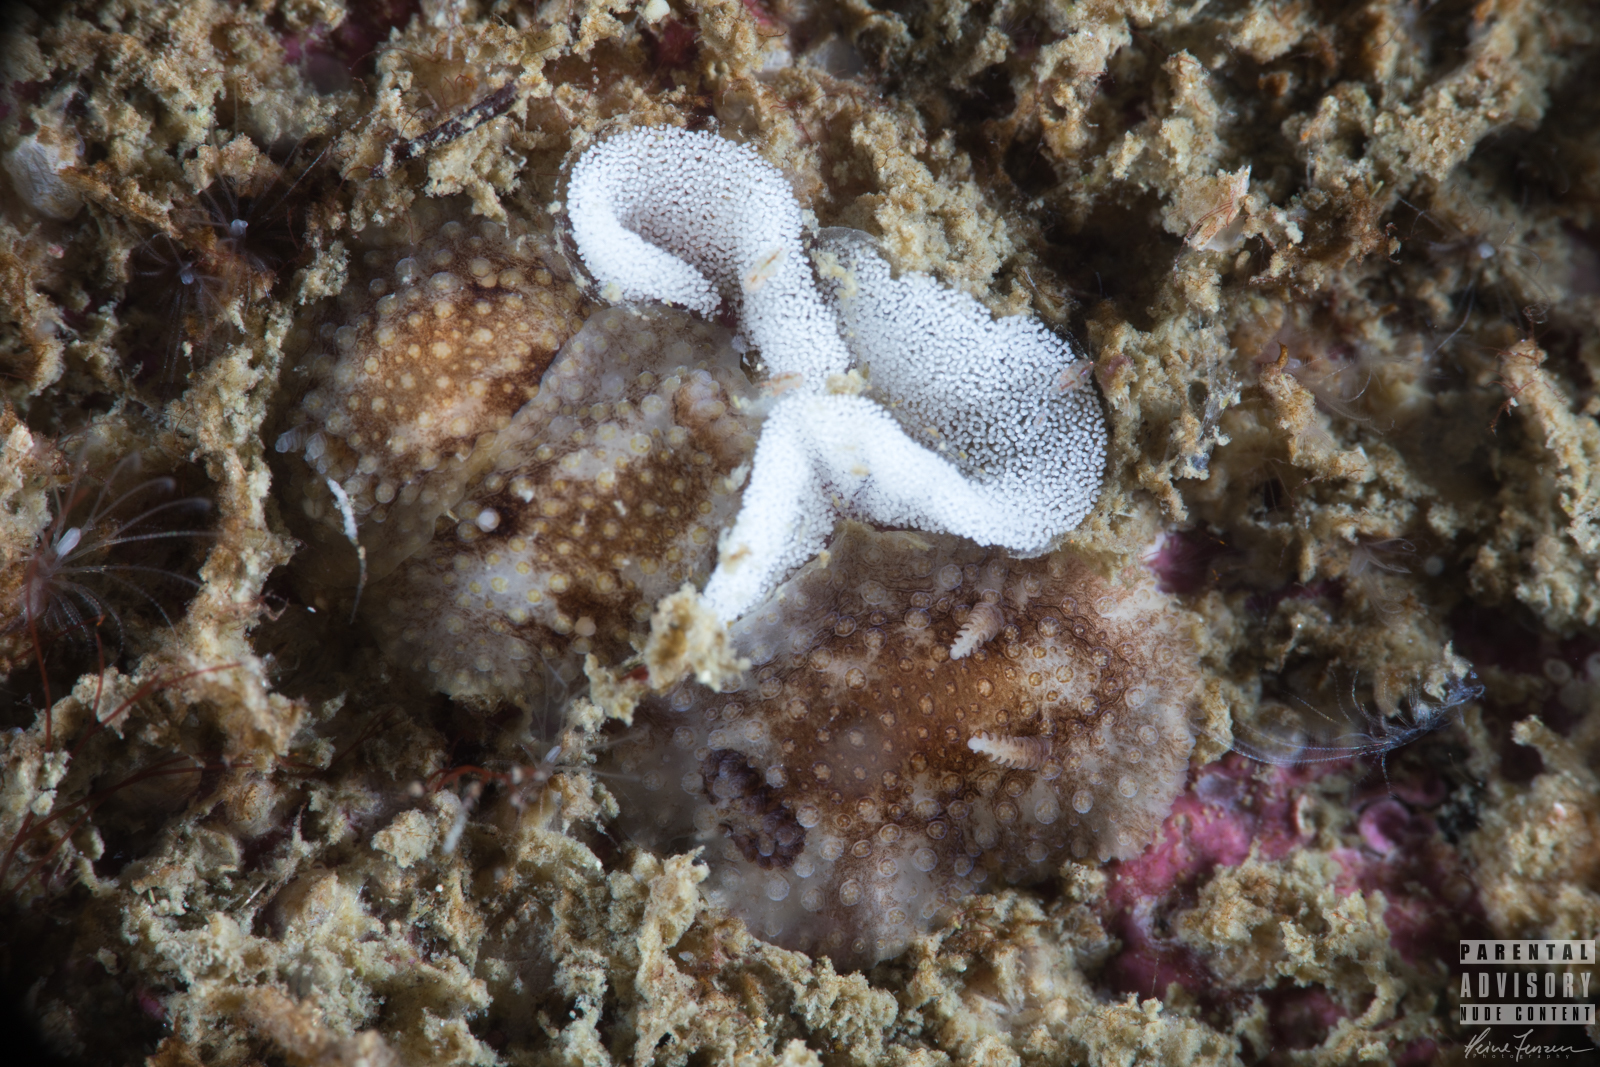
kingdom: Animalia
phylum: Mollusca
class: Gastropoda
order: Nudibranchia
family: Onchidorididae
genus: Onchidoris
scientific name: Onchidoris bilamellata
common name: Barnacle-eating onchidoris
